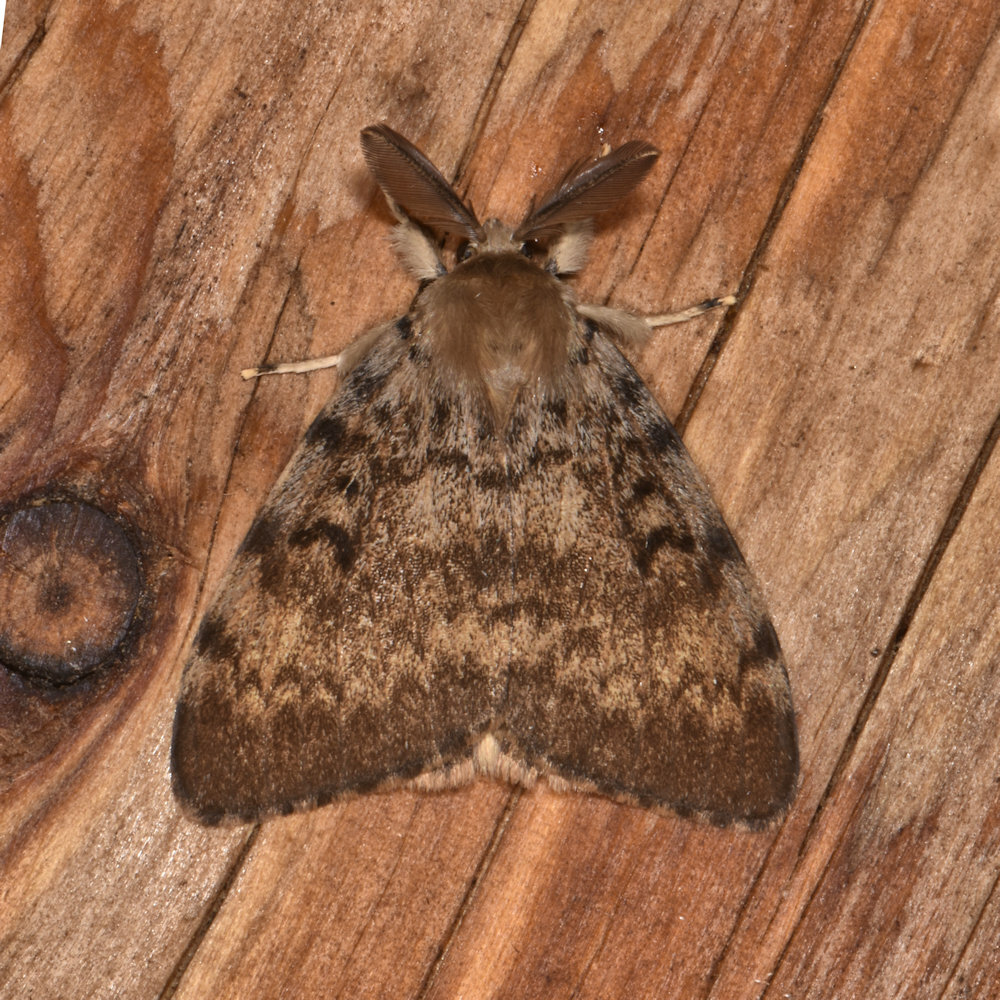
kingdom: Animalia
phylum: Arthropoda
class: Insecta
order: Lepidoptera
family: Erebidae
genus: Lymantria
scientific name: Lymantria dispar
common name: Gypsy moth
